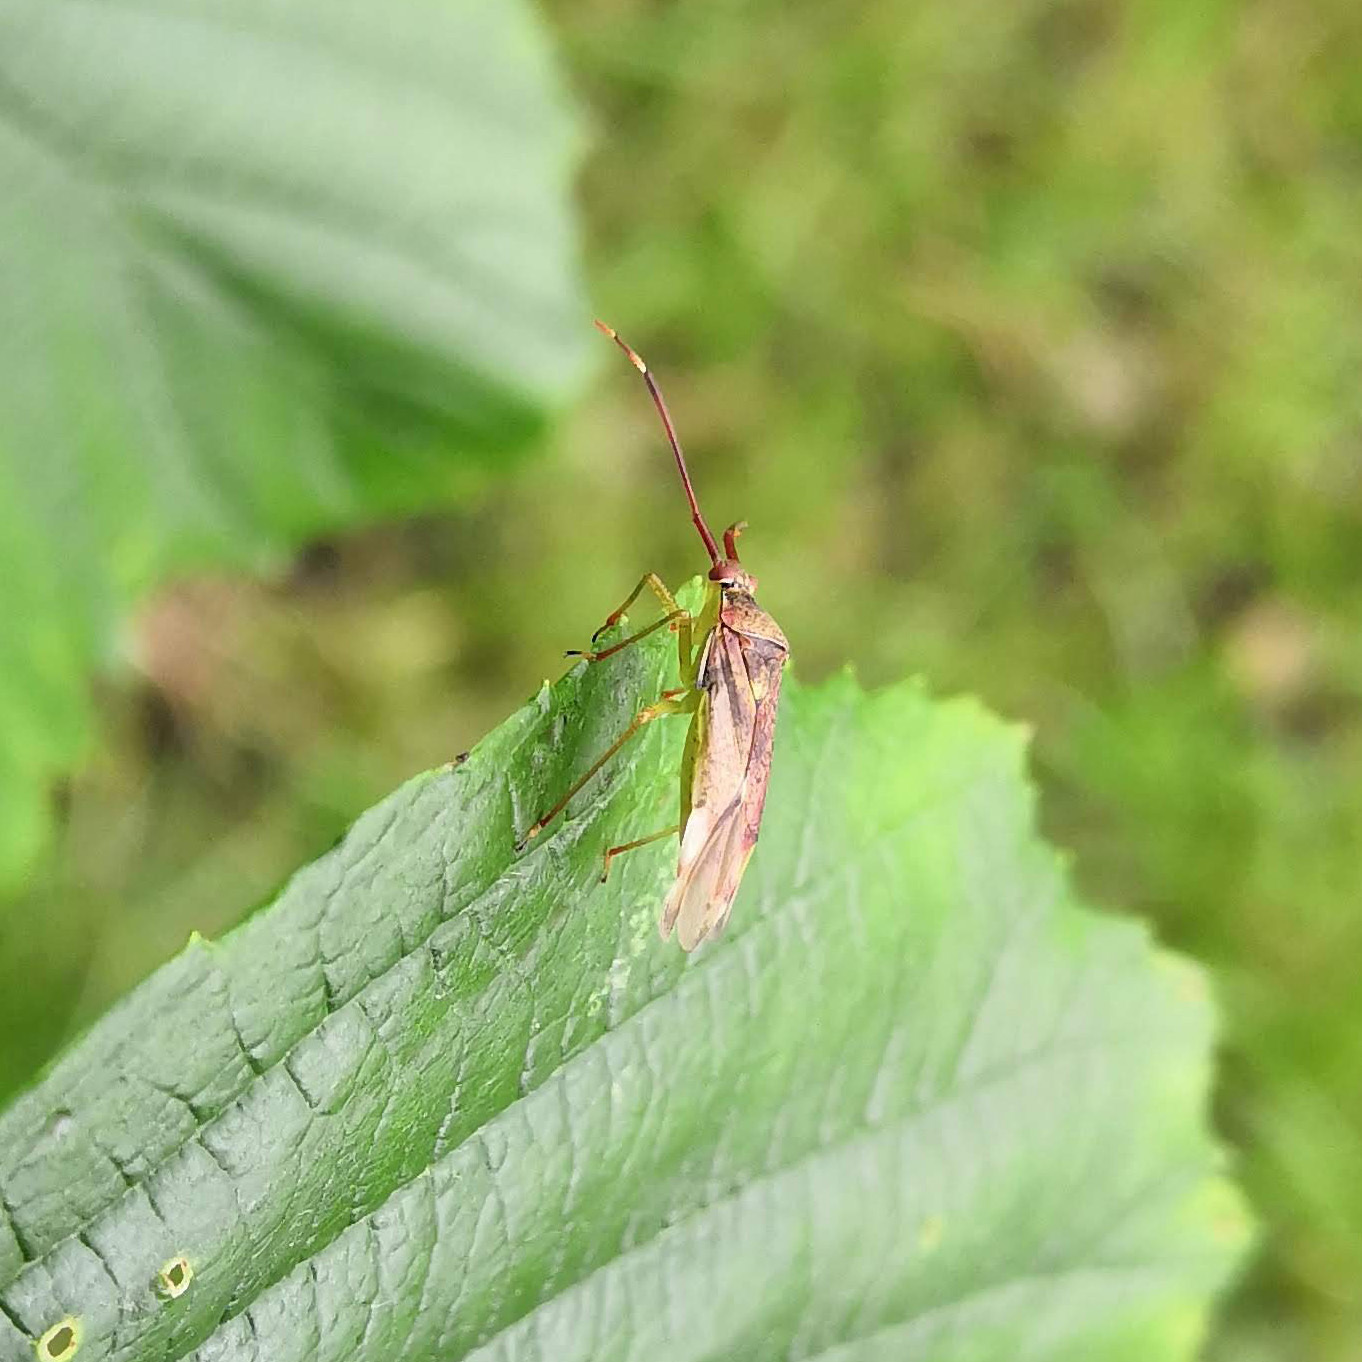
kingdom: Animalia
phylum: Arthropoda
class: Insecta
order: Hemiptera
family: Miridae
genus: Pantilius
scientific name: Pantilius tunicatus
